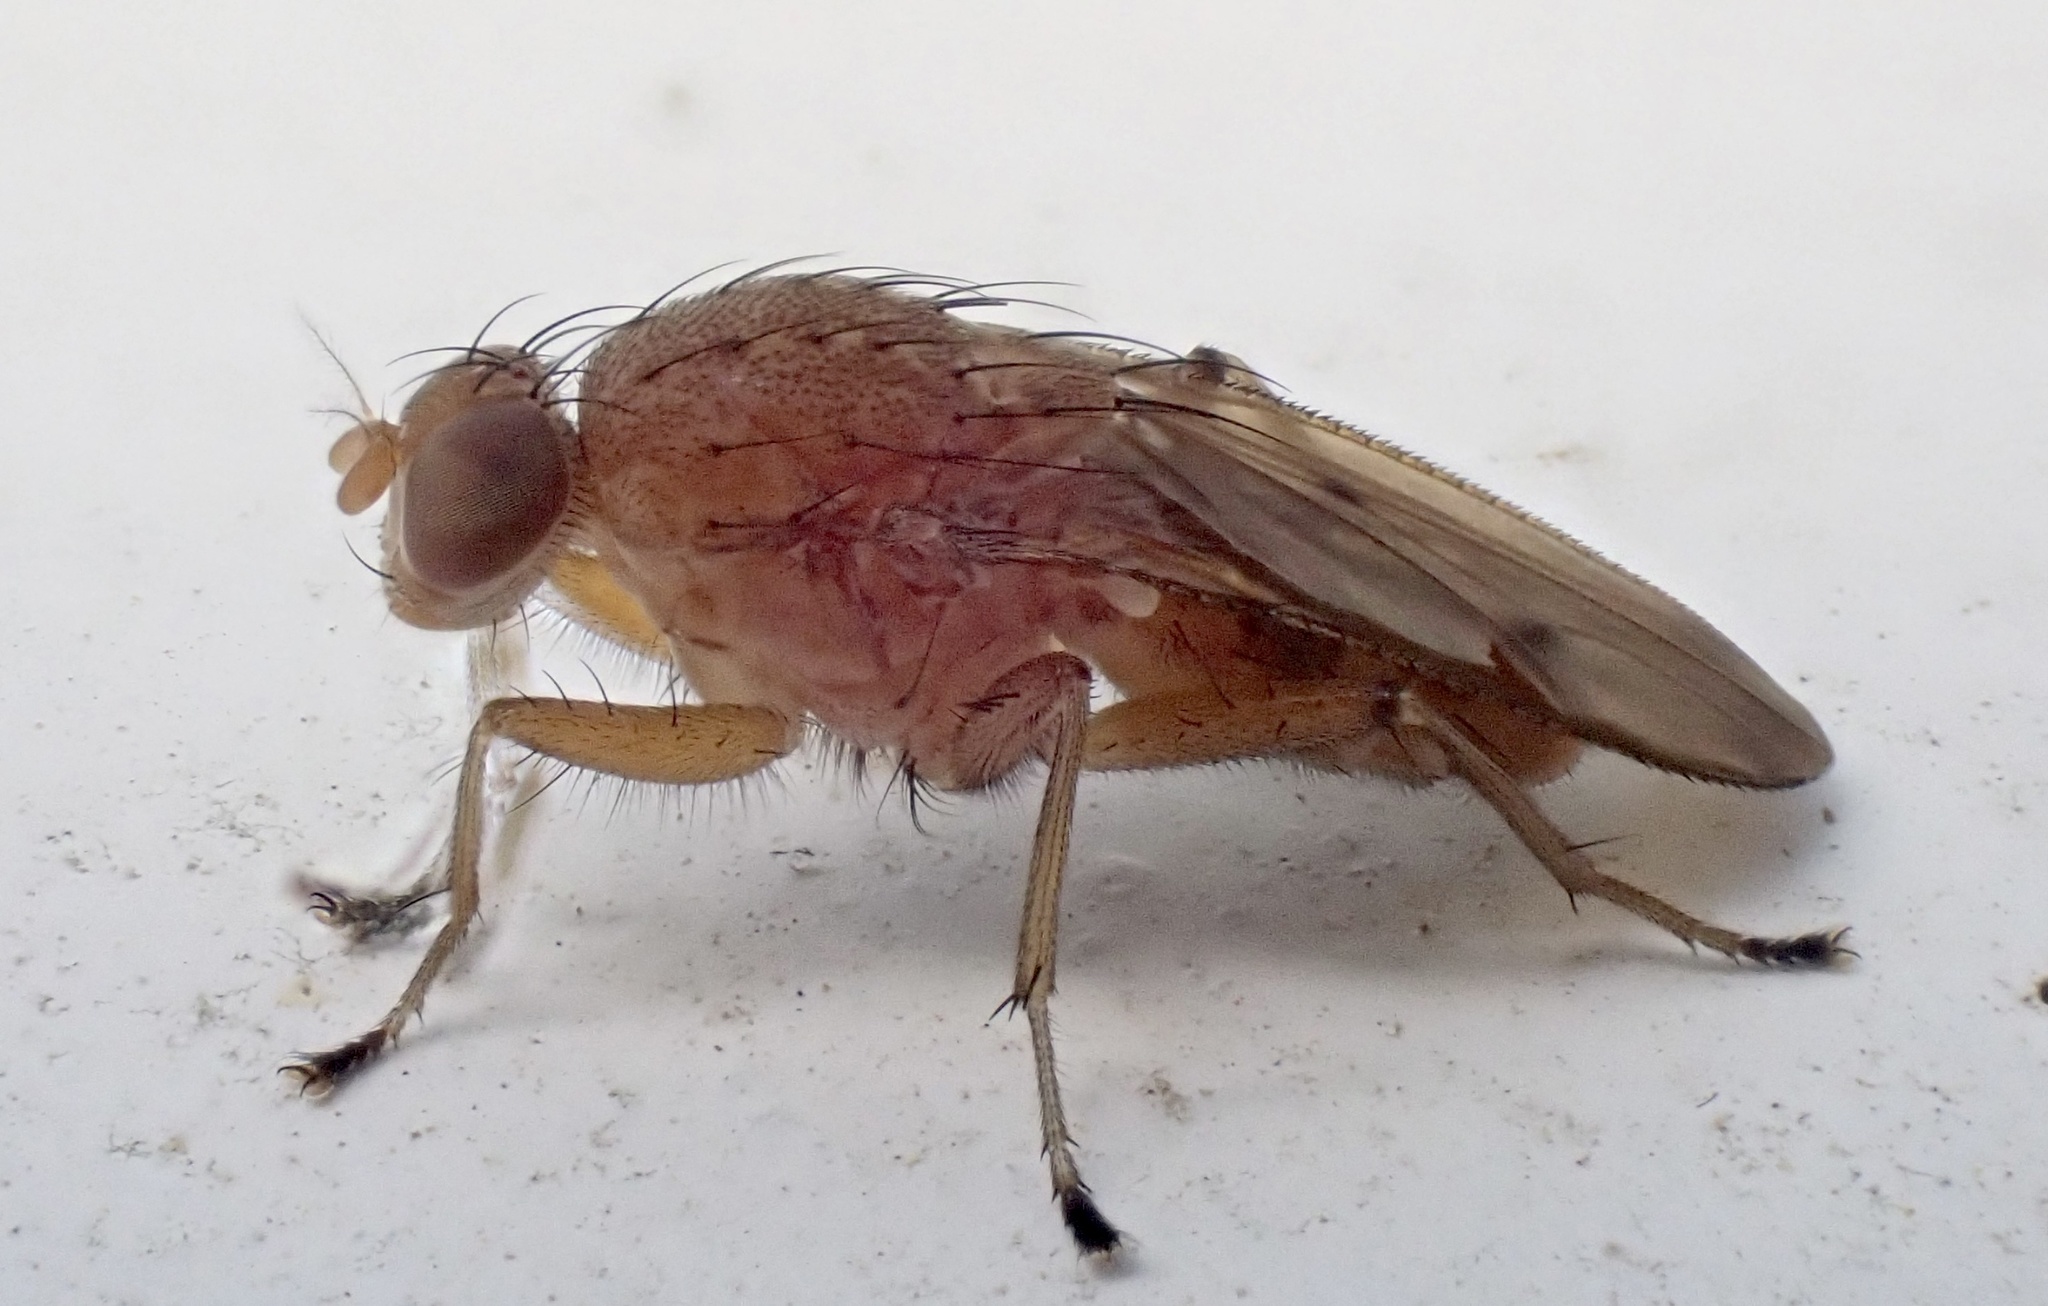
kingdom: Animalia
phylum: Arthropoda
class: Insecta
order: Diptera
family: Heleomyzidae
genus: Suillia
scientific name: Suillia quinquepunctata
